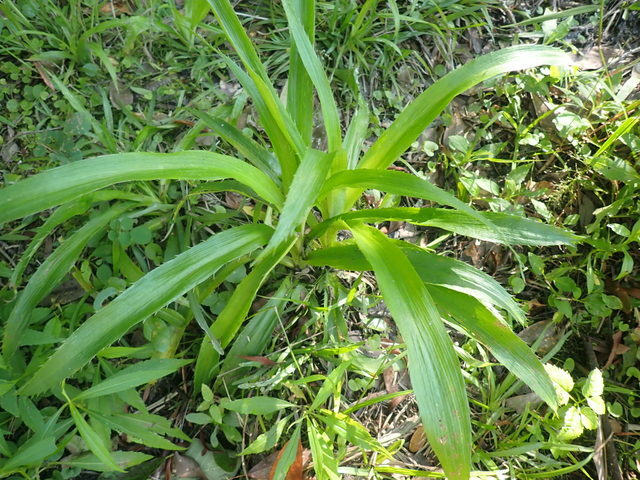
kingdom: Plantae
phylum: Tracheophyta
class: Magnoliopsida
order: Apiales
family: Apiaceae
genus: Eryngium
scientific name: Eryngium yuccifolium
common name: Button eryngo
